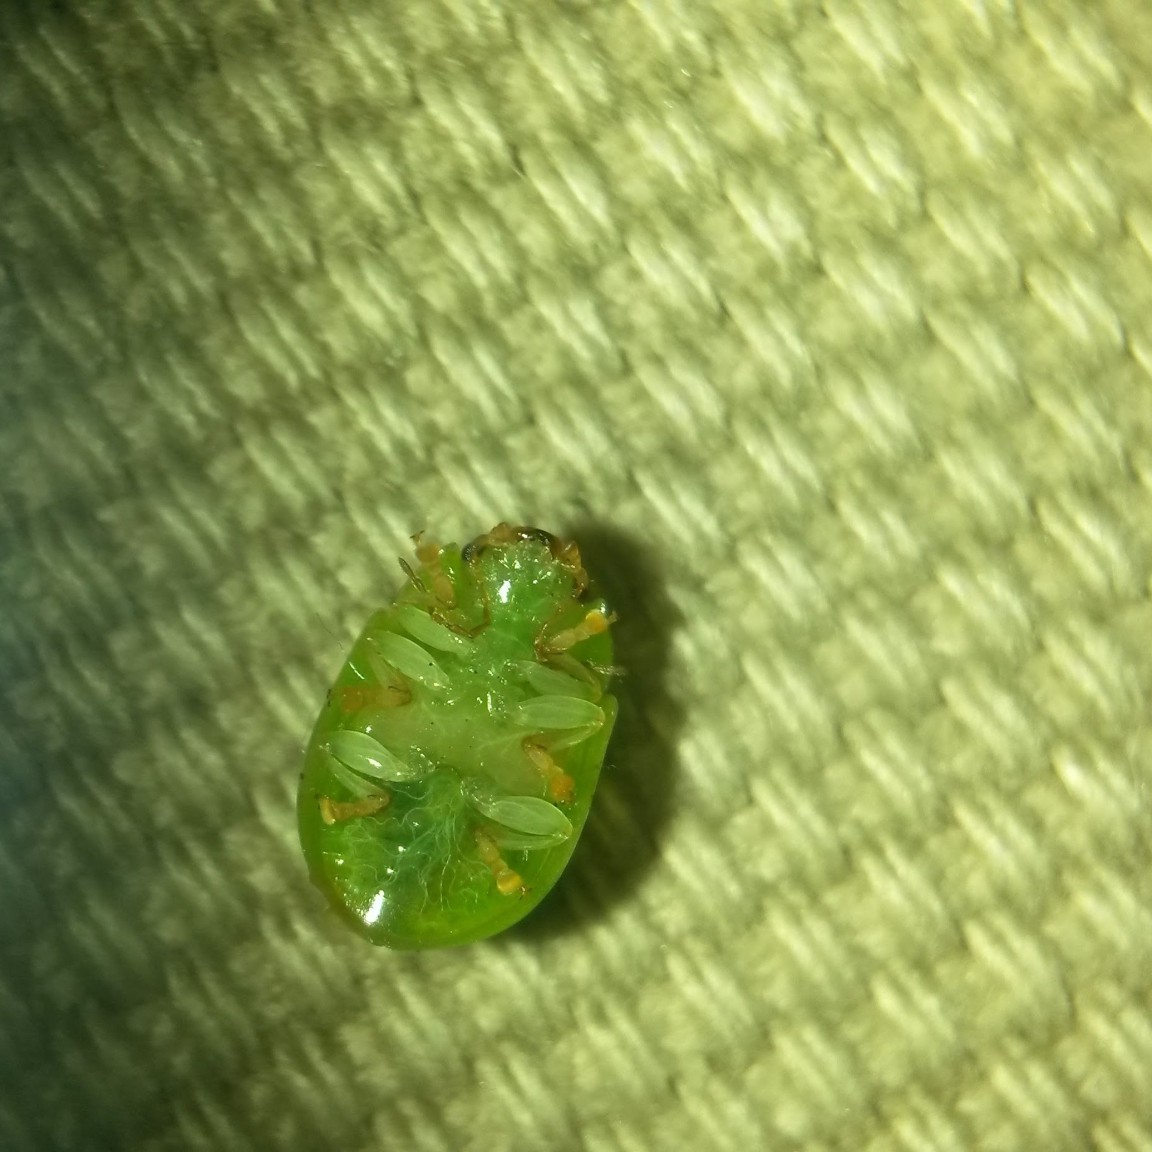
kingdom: Animalia
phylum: Arthropoda
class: Insecta
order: Coleoptera
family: Chrysomelidae
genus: Paropsides
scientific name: Paropsides
